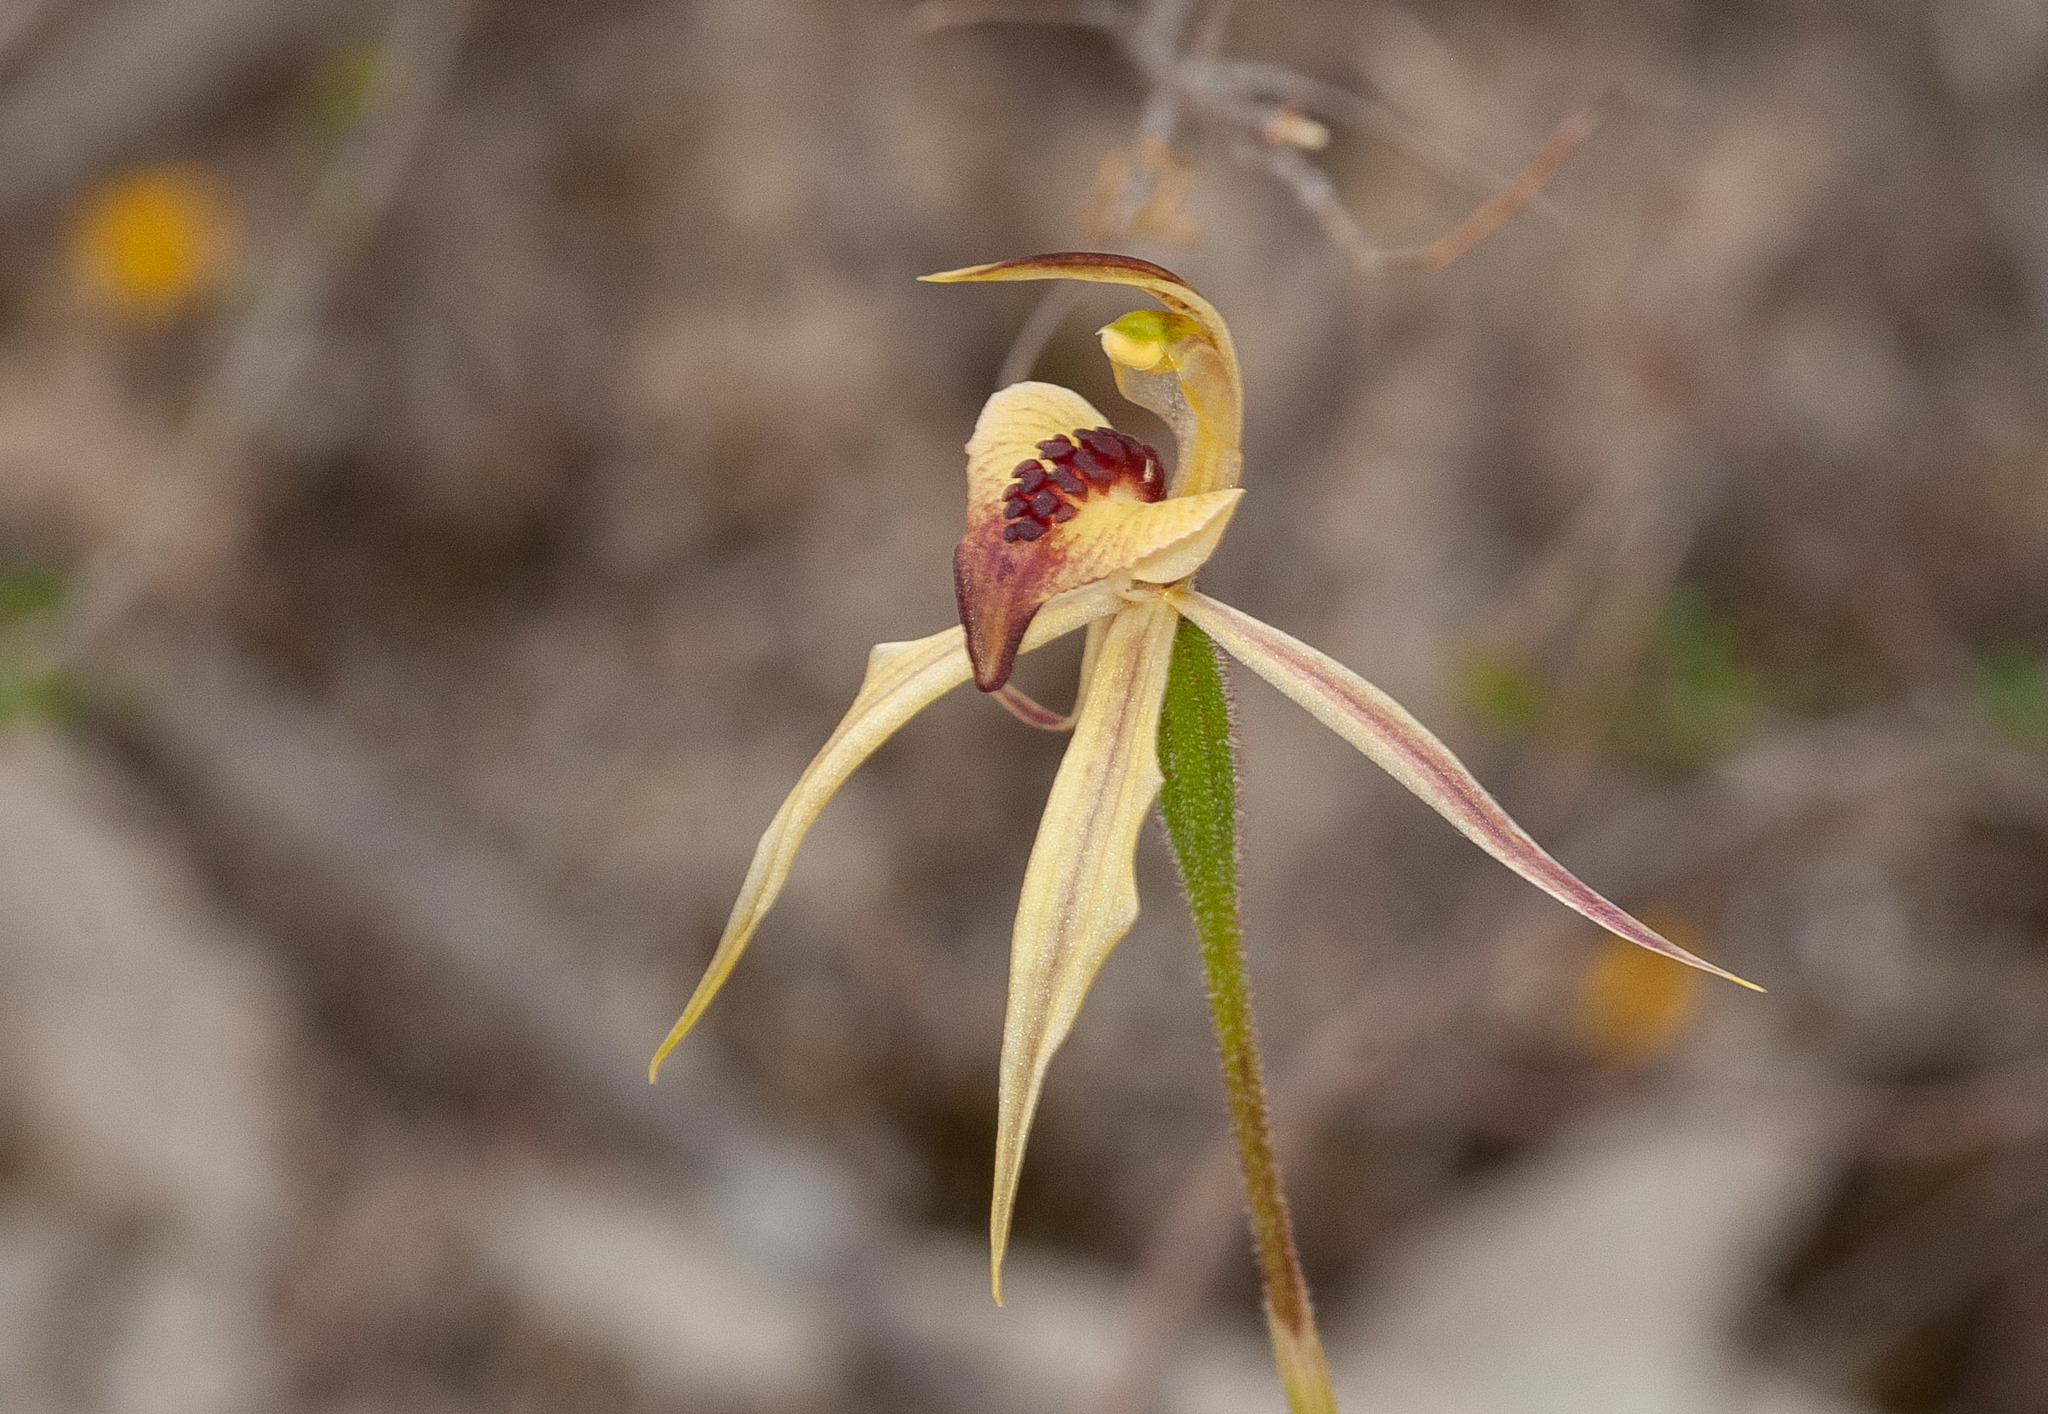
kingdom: Plantae
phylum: Tracheophyta
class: Liliopsida
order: Asparagales
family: Orchidaceae
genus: Caladenia
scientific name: Caladenia cardiochila
